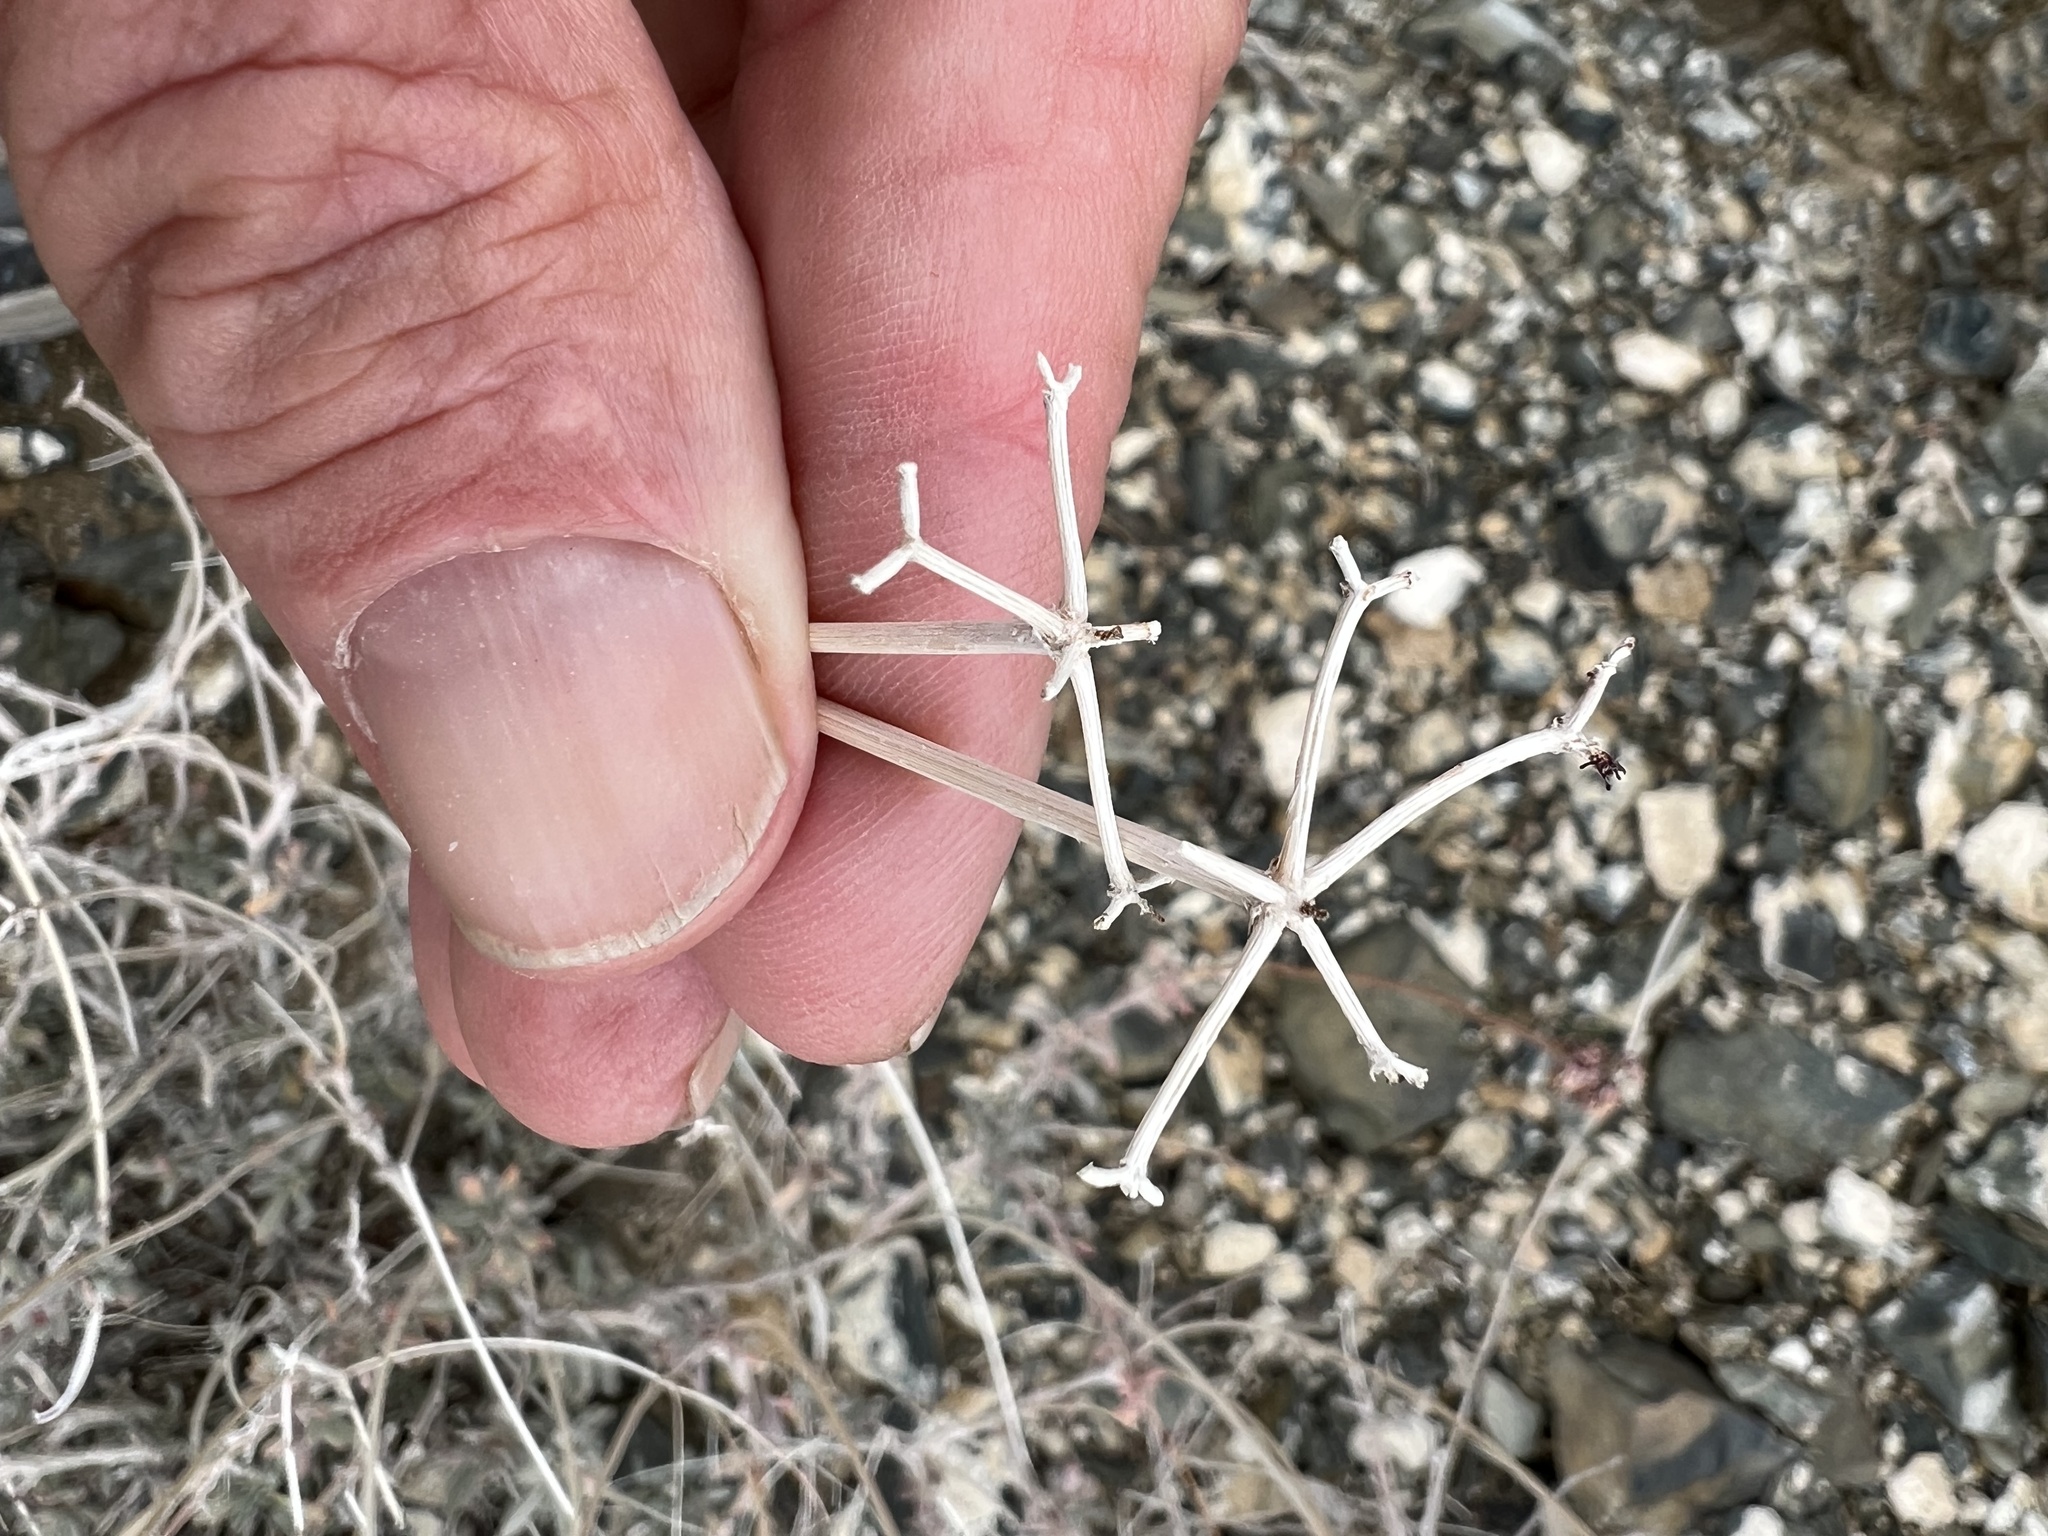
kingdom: Plantae
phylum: Tracheophyta
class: Magnoliopsida
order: Caryophyllales
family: Polygonaceae
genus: Eriogonum
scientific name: Eriogonum fasciculatum
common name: California wild buckwheat
